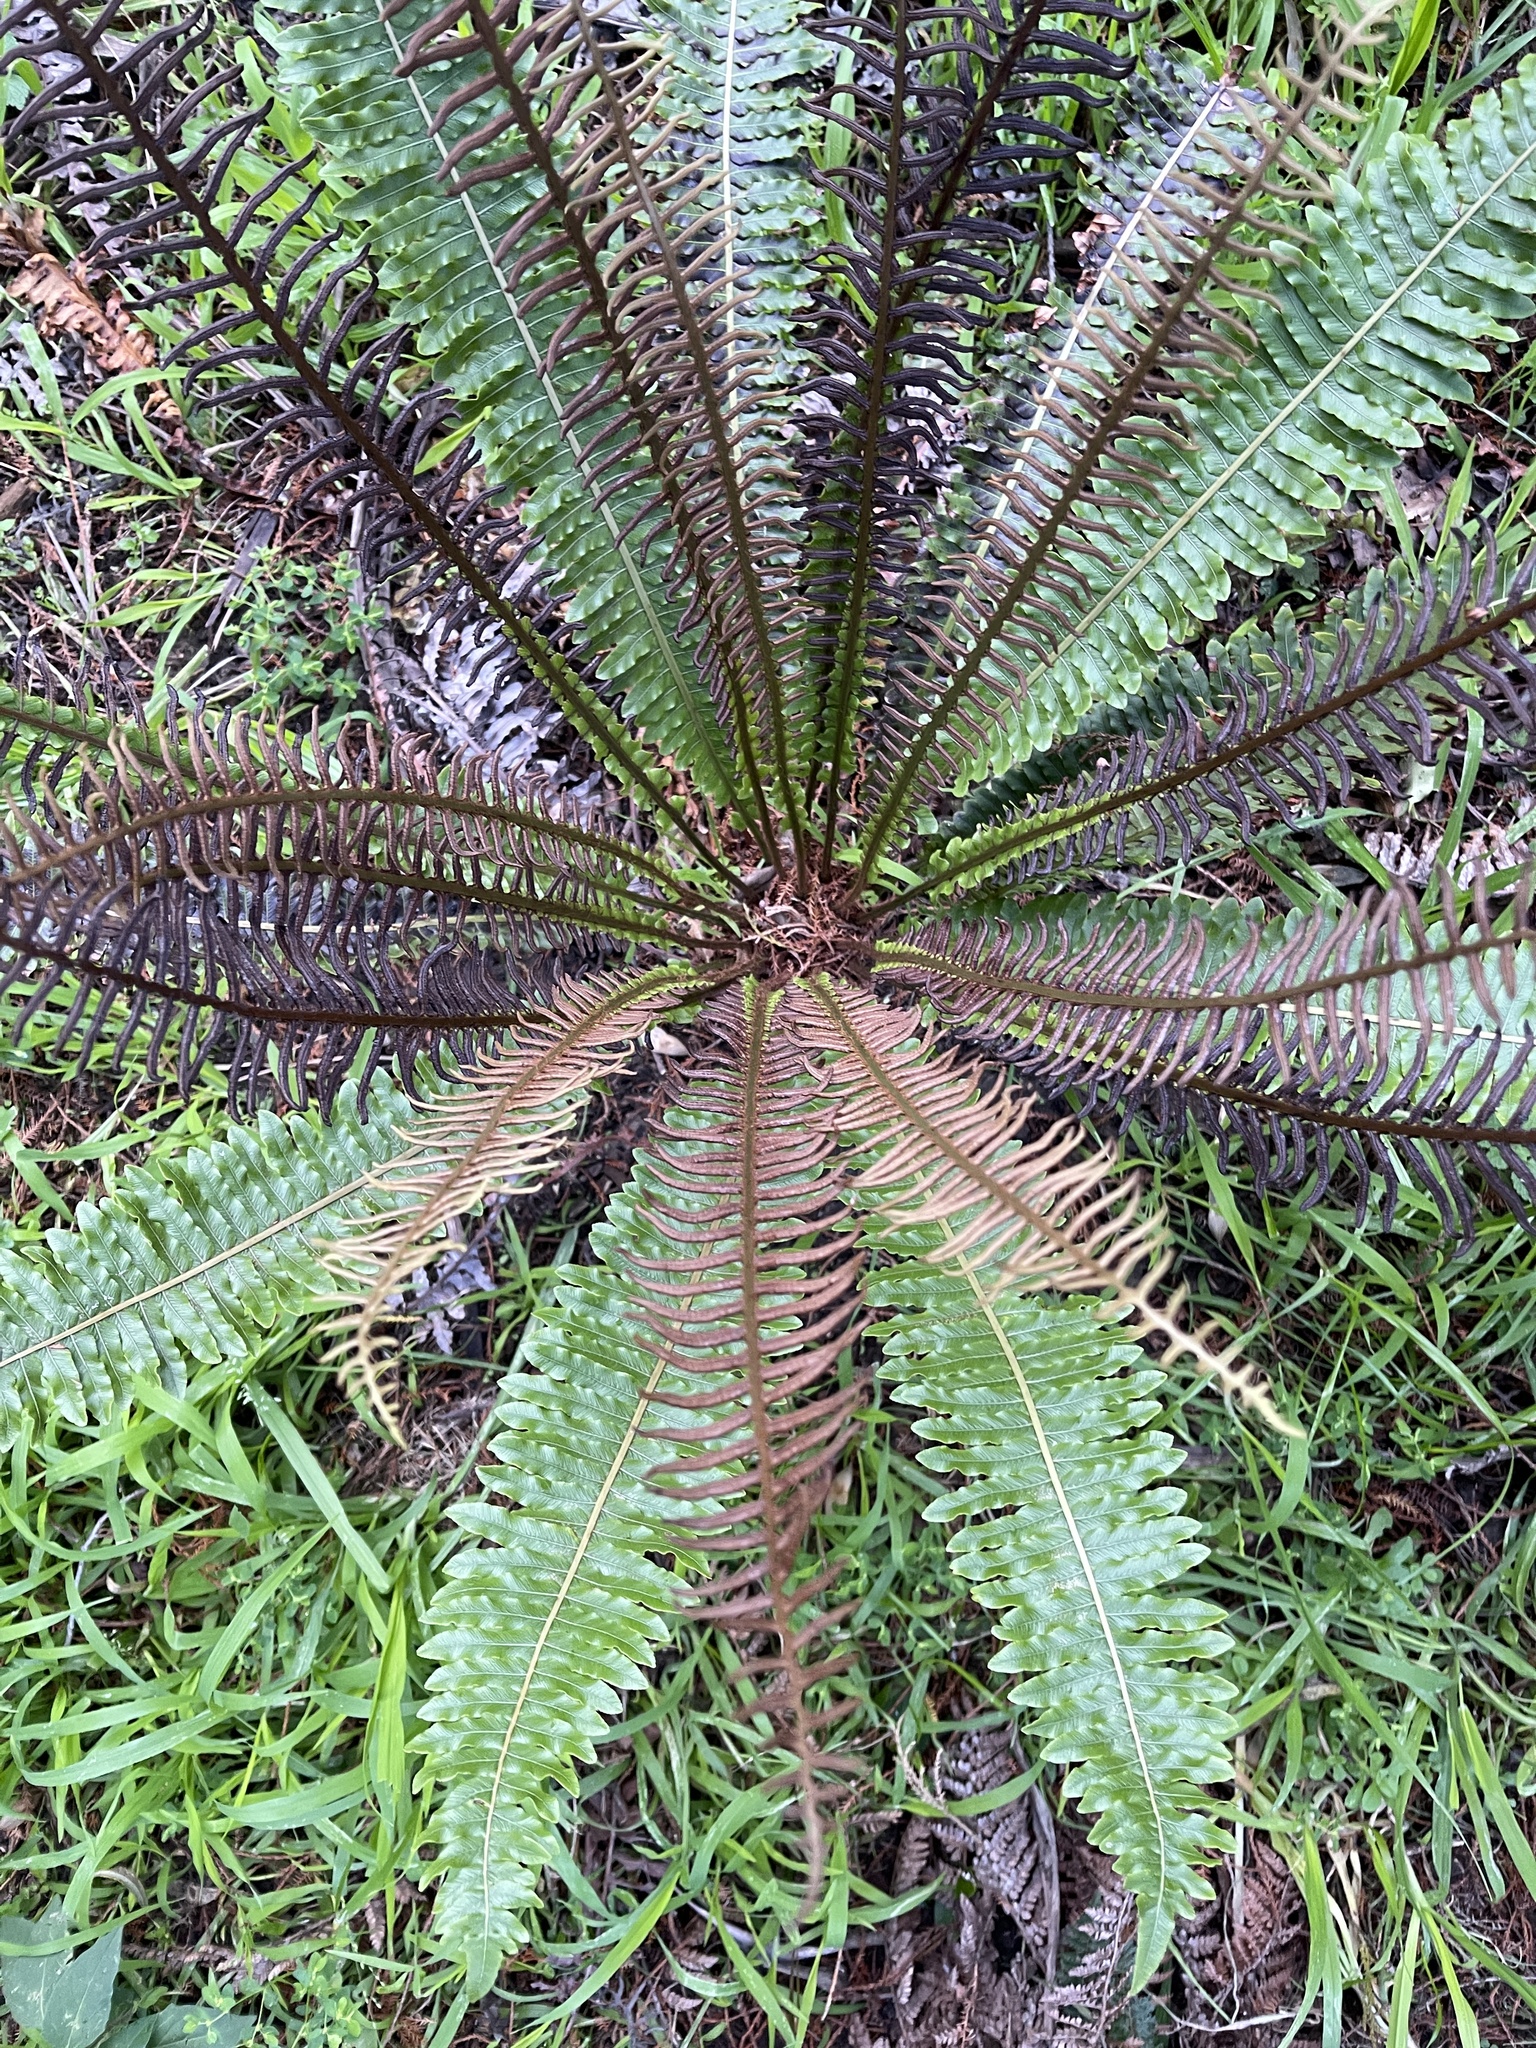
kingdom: Plantae
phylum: Tracheophyta
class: Polypodiopsida
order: Polypodiales
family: Blechnaceae
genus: Lomaria
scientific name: Lomaria discolor
